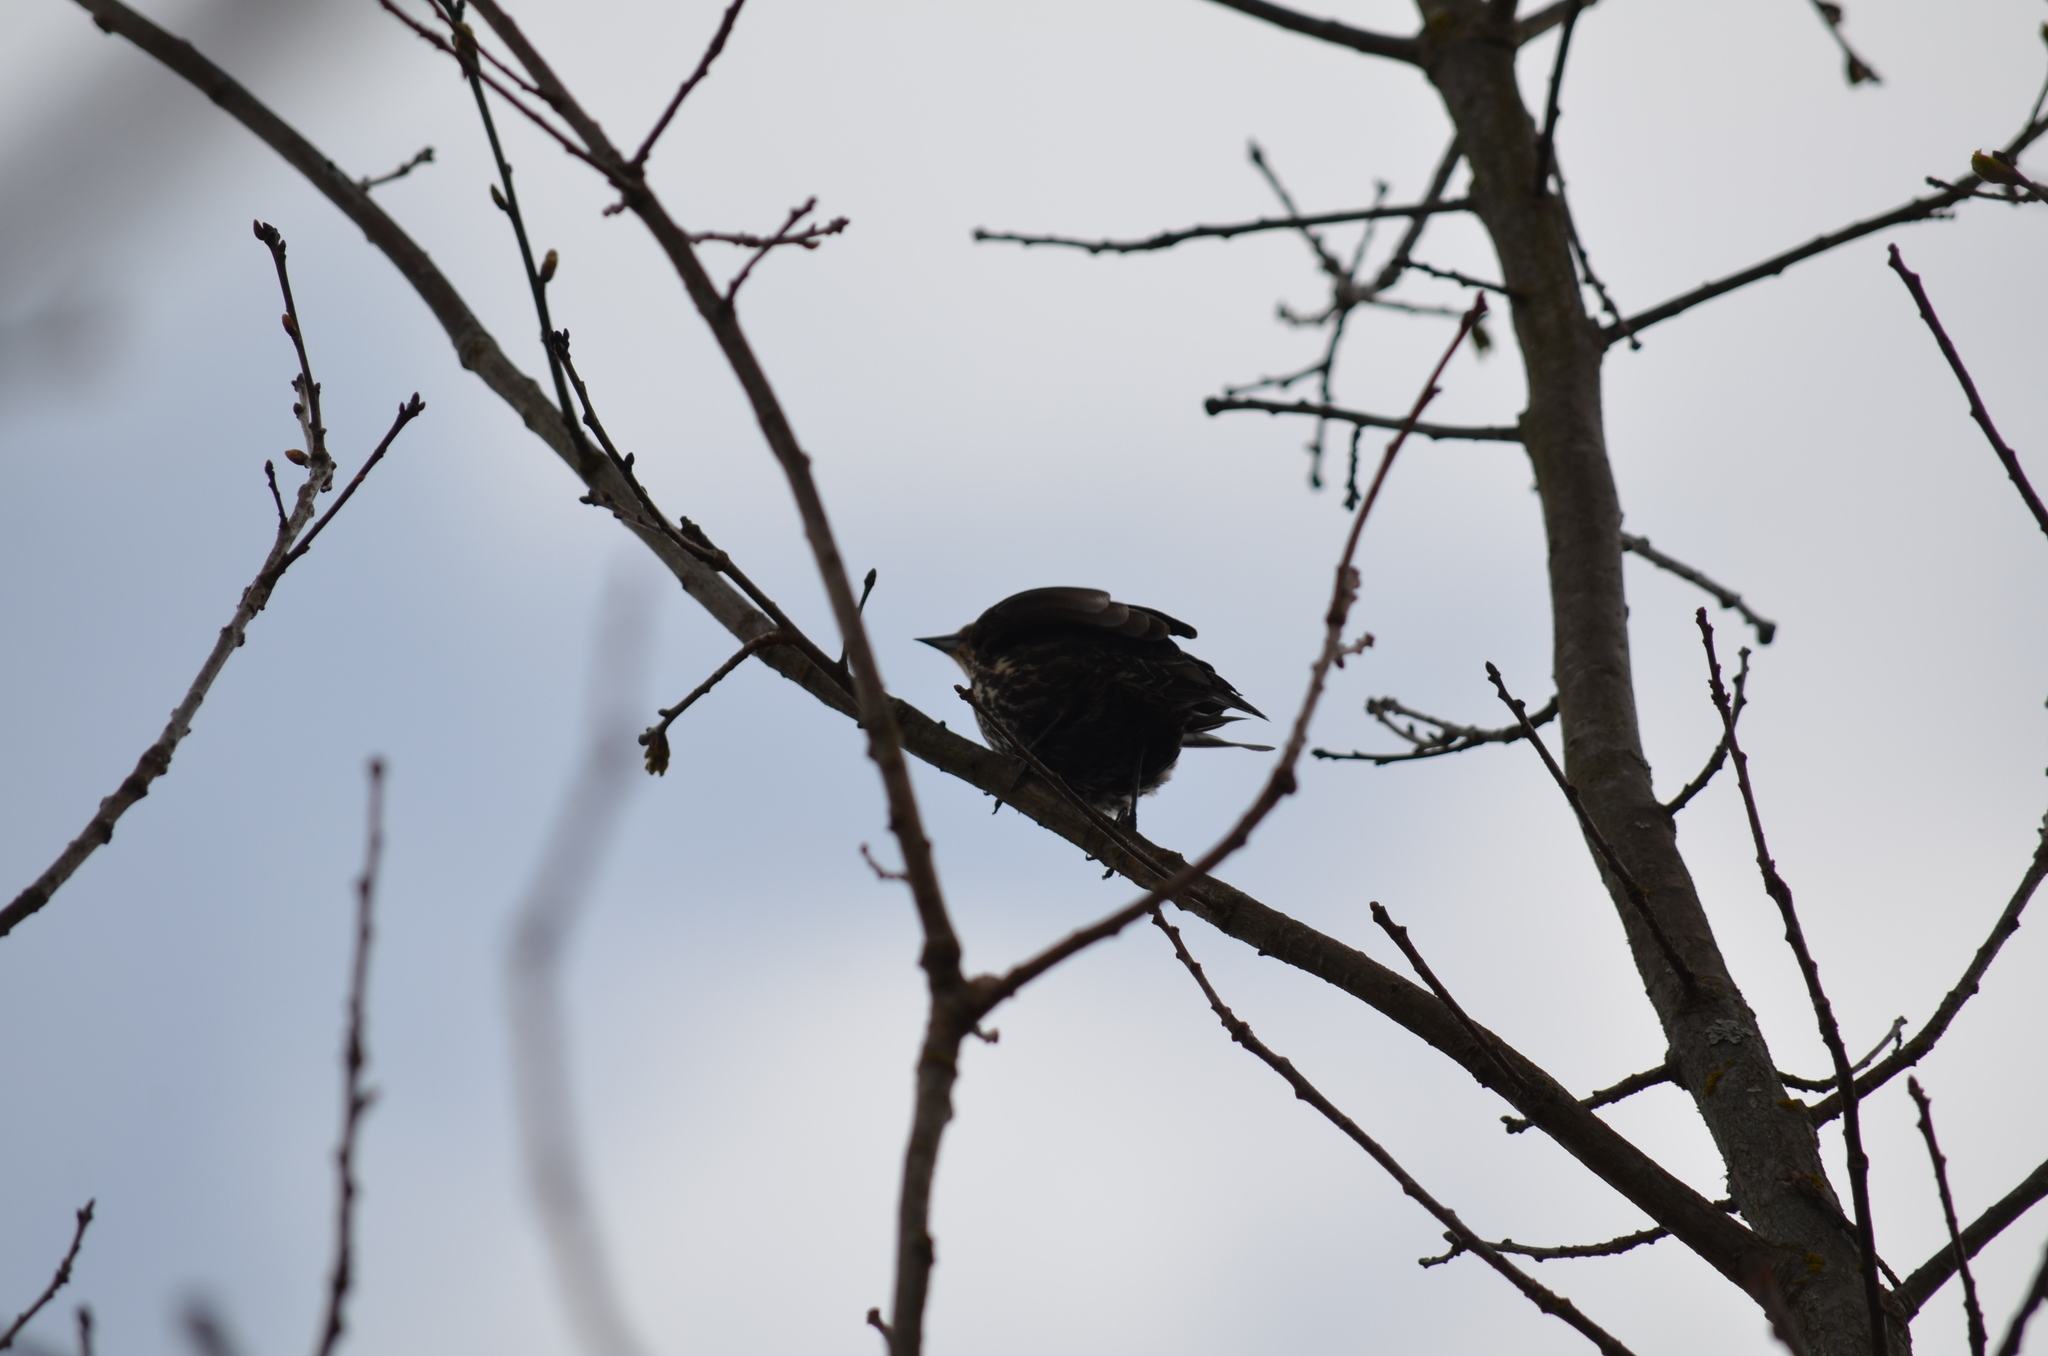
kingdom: Animalia
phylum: Chordata
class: Aves
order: Passeriformes
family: Icteridae
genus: Agelaius
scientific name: Agelaius phoeniceus
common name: Red-winged blackbird
